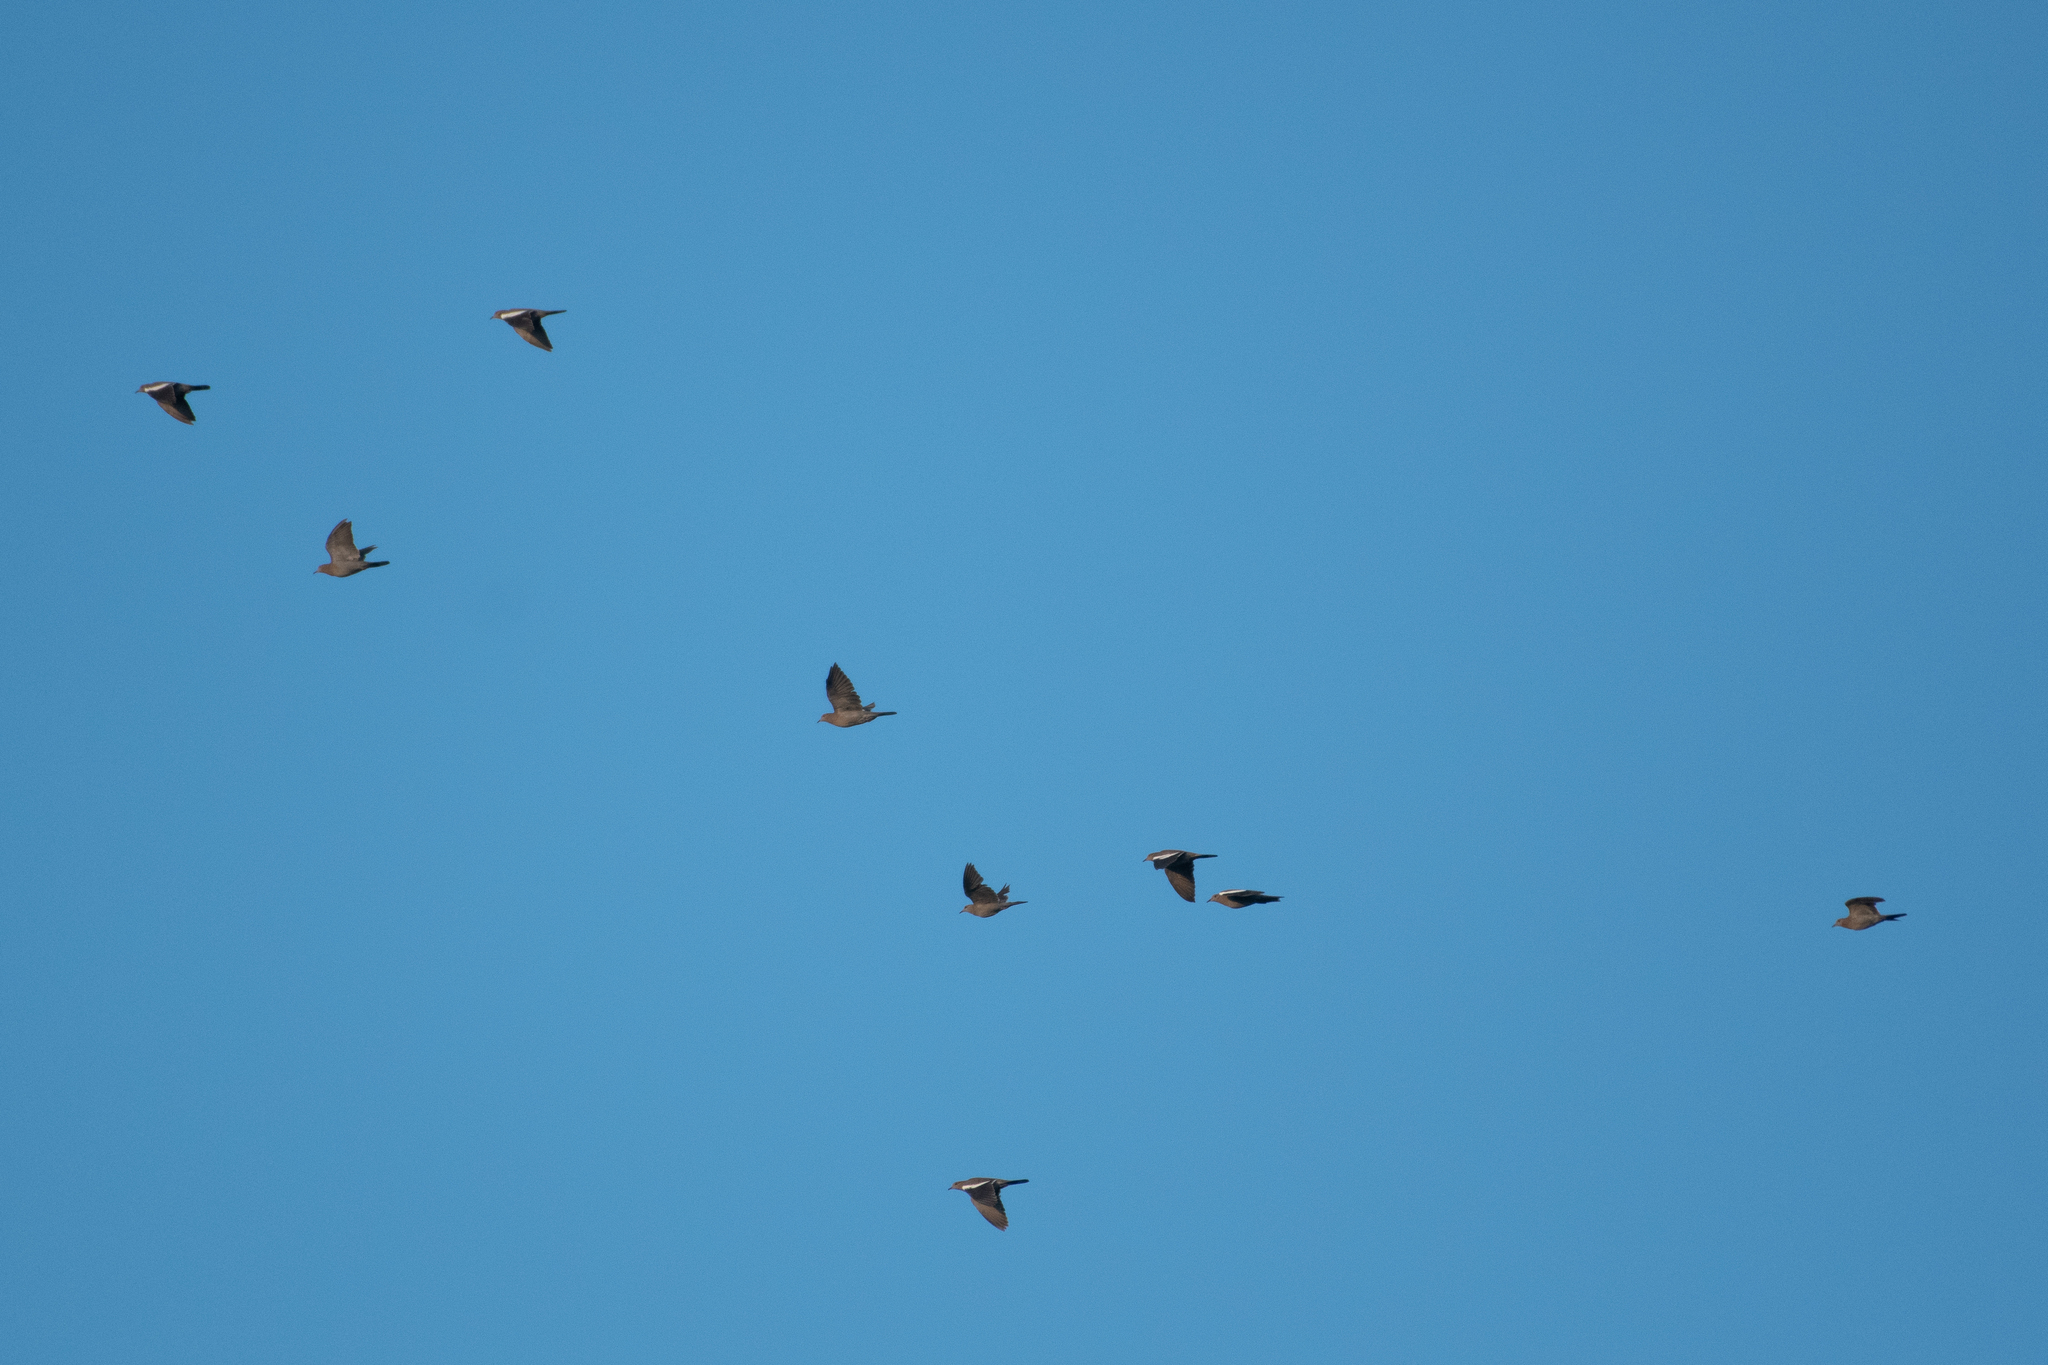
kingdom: Animalia
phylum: Chordata
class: Aves
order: Columbiformes
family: Columbidae
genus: Zenaida
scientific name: Zenaida asiatica
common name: White-winged dove
